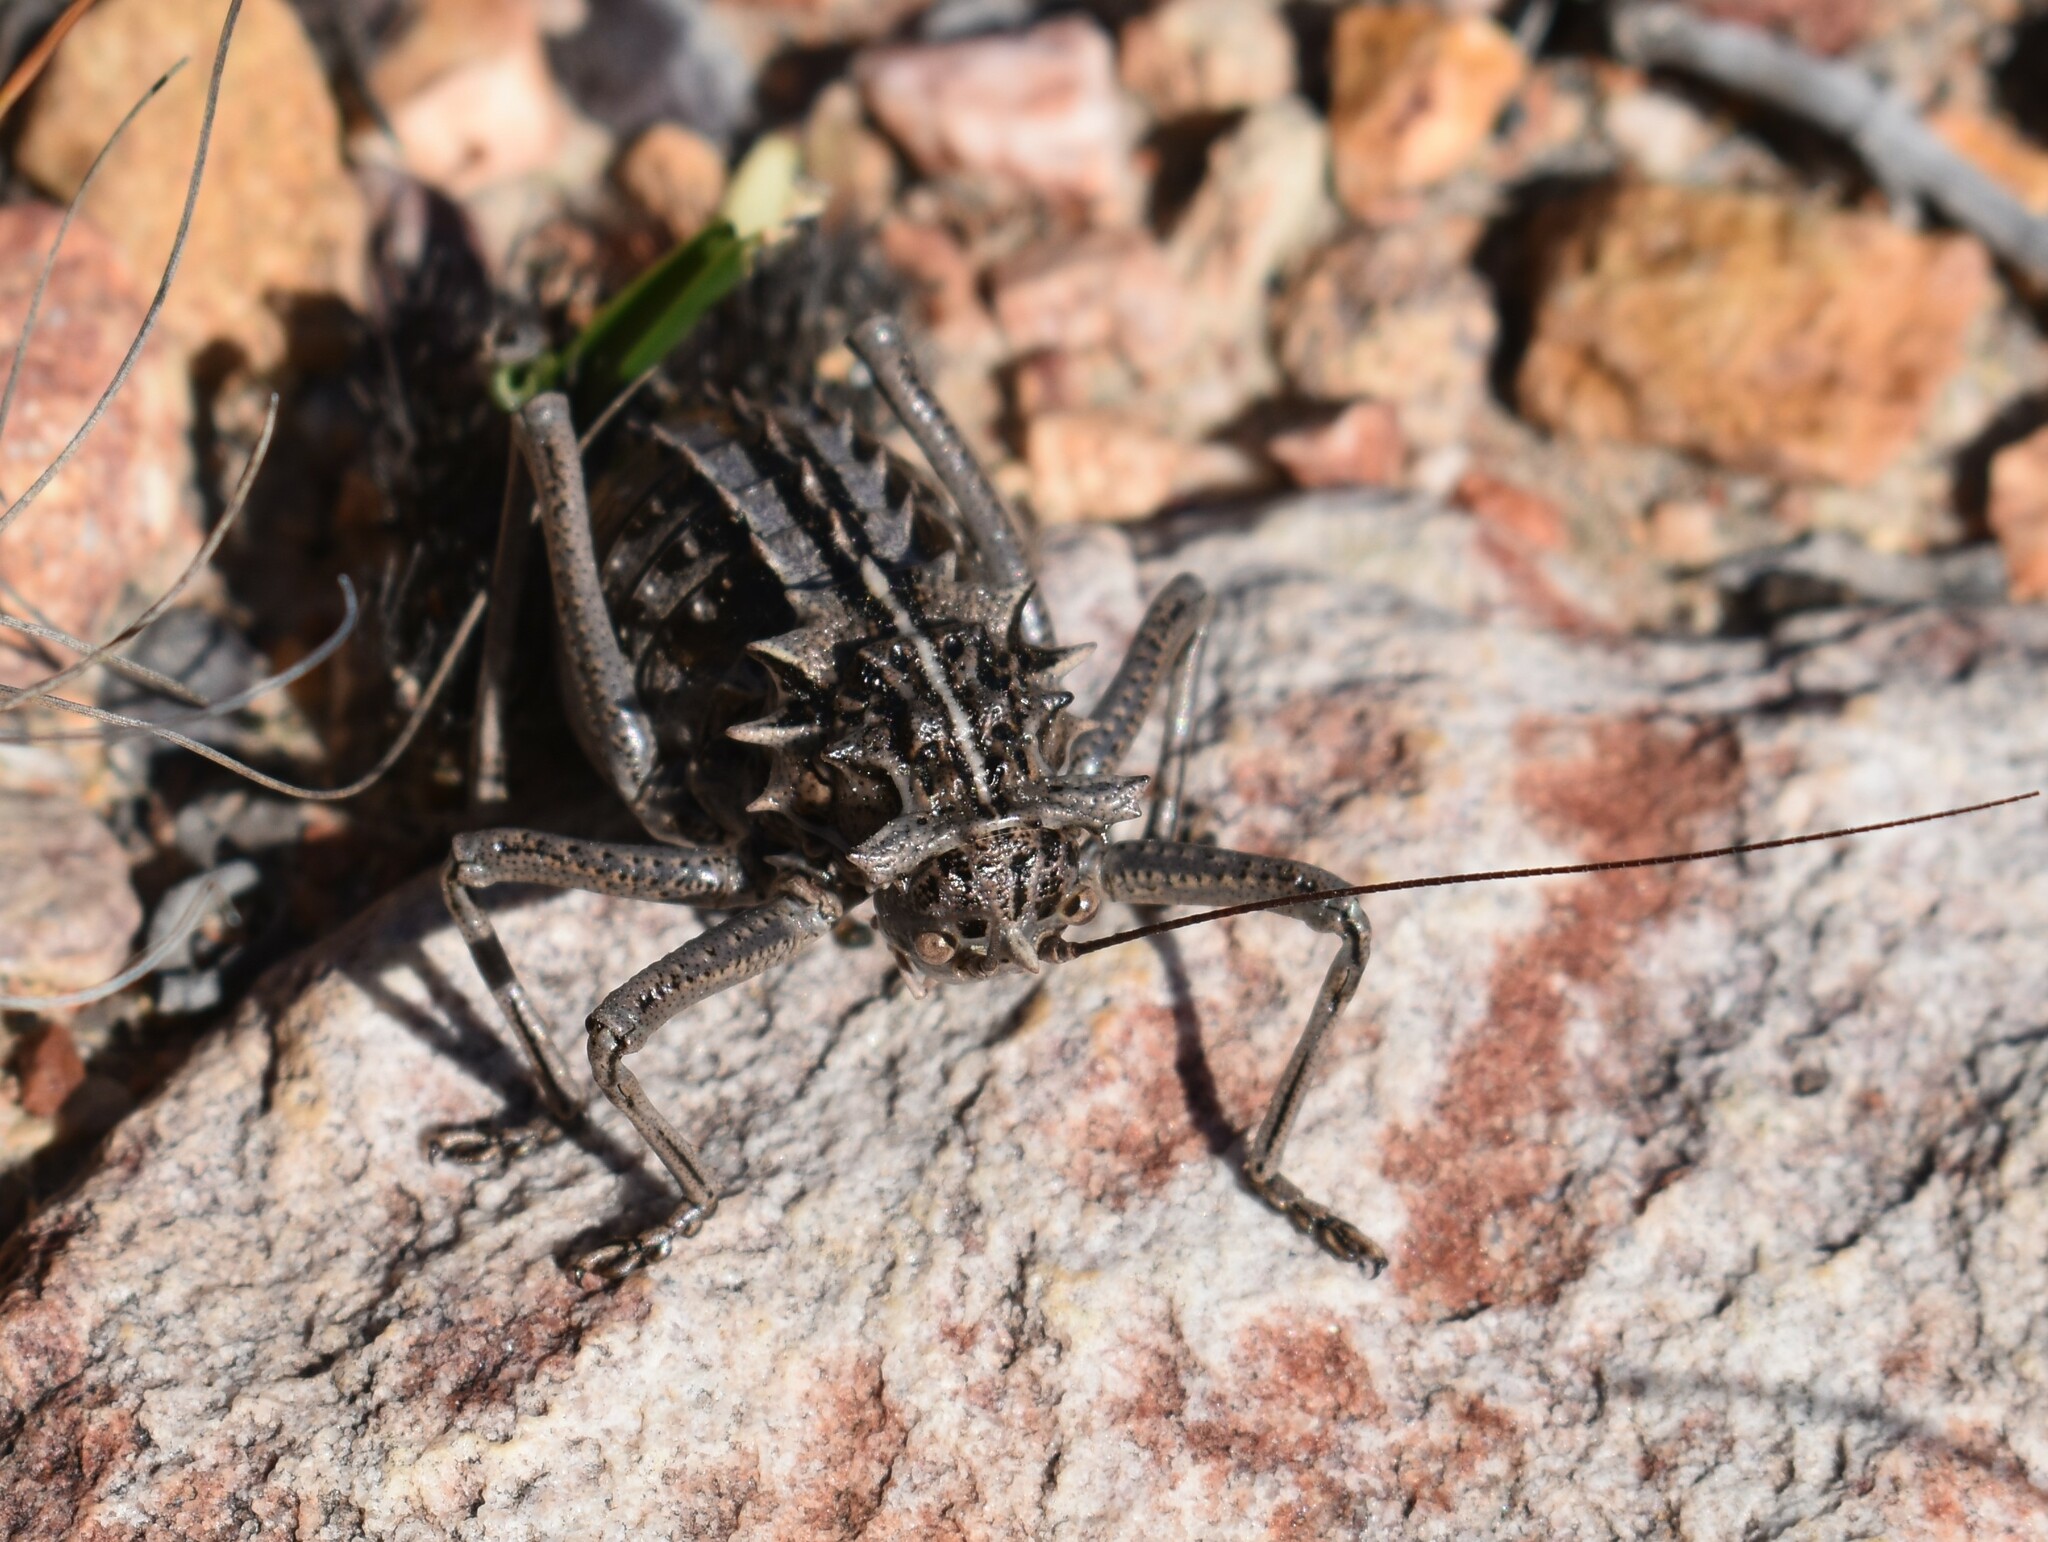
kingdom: Animalia
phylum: Arthropoda
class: Insecta
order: Orthoptera
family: Tettigoniidae
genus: Hetrodes
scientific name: Hetrodes pupus
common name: Koringkriek
